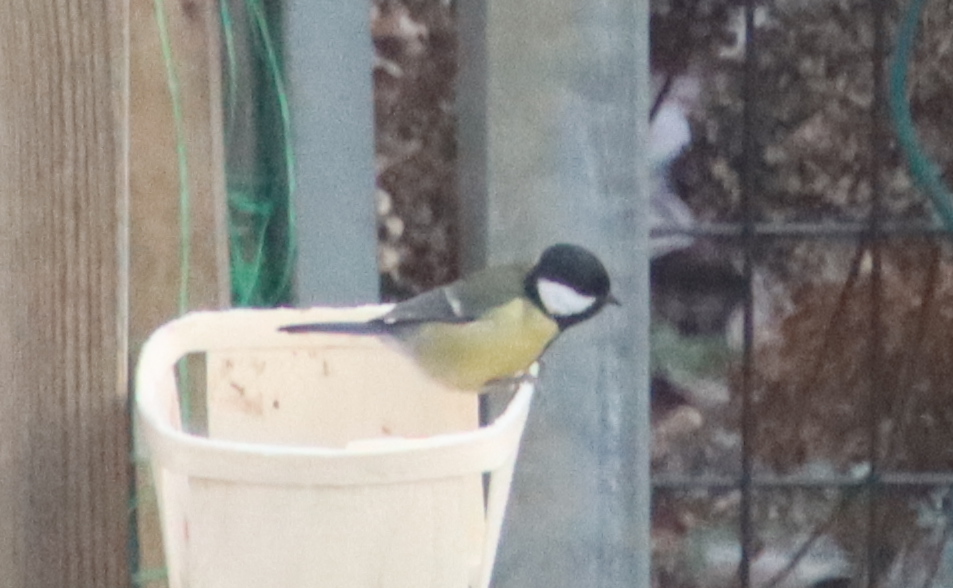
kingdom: Animalia
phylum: Chordata
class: Aves
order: Passeriformes
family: Paridae
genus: Parus
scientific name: Parus major
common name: Great tit
